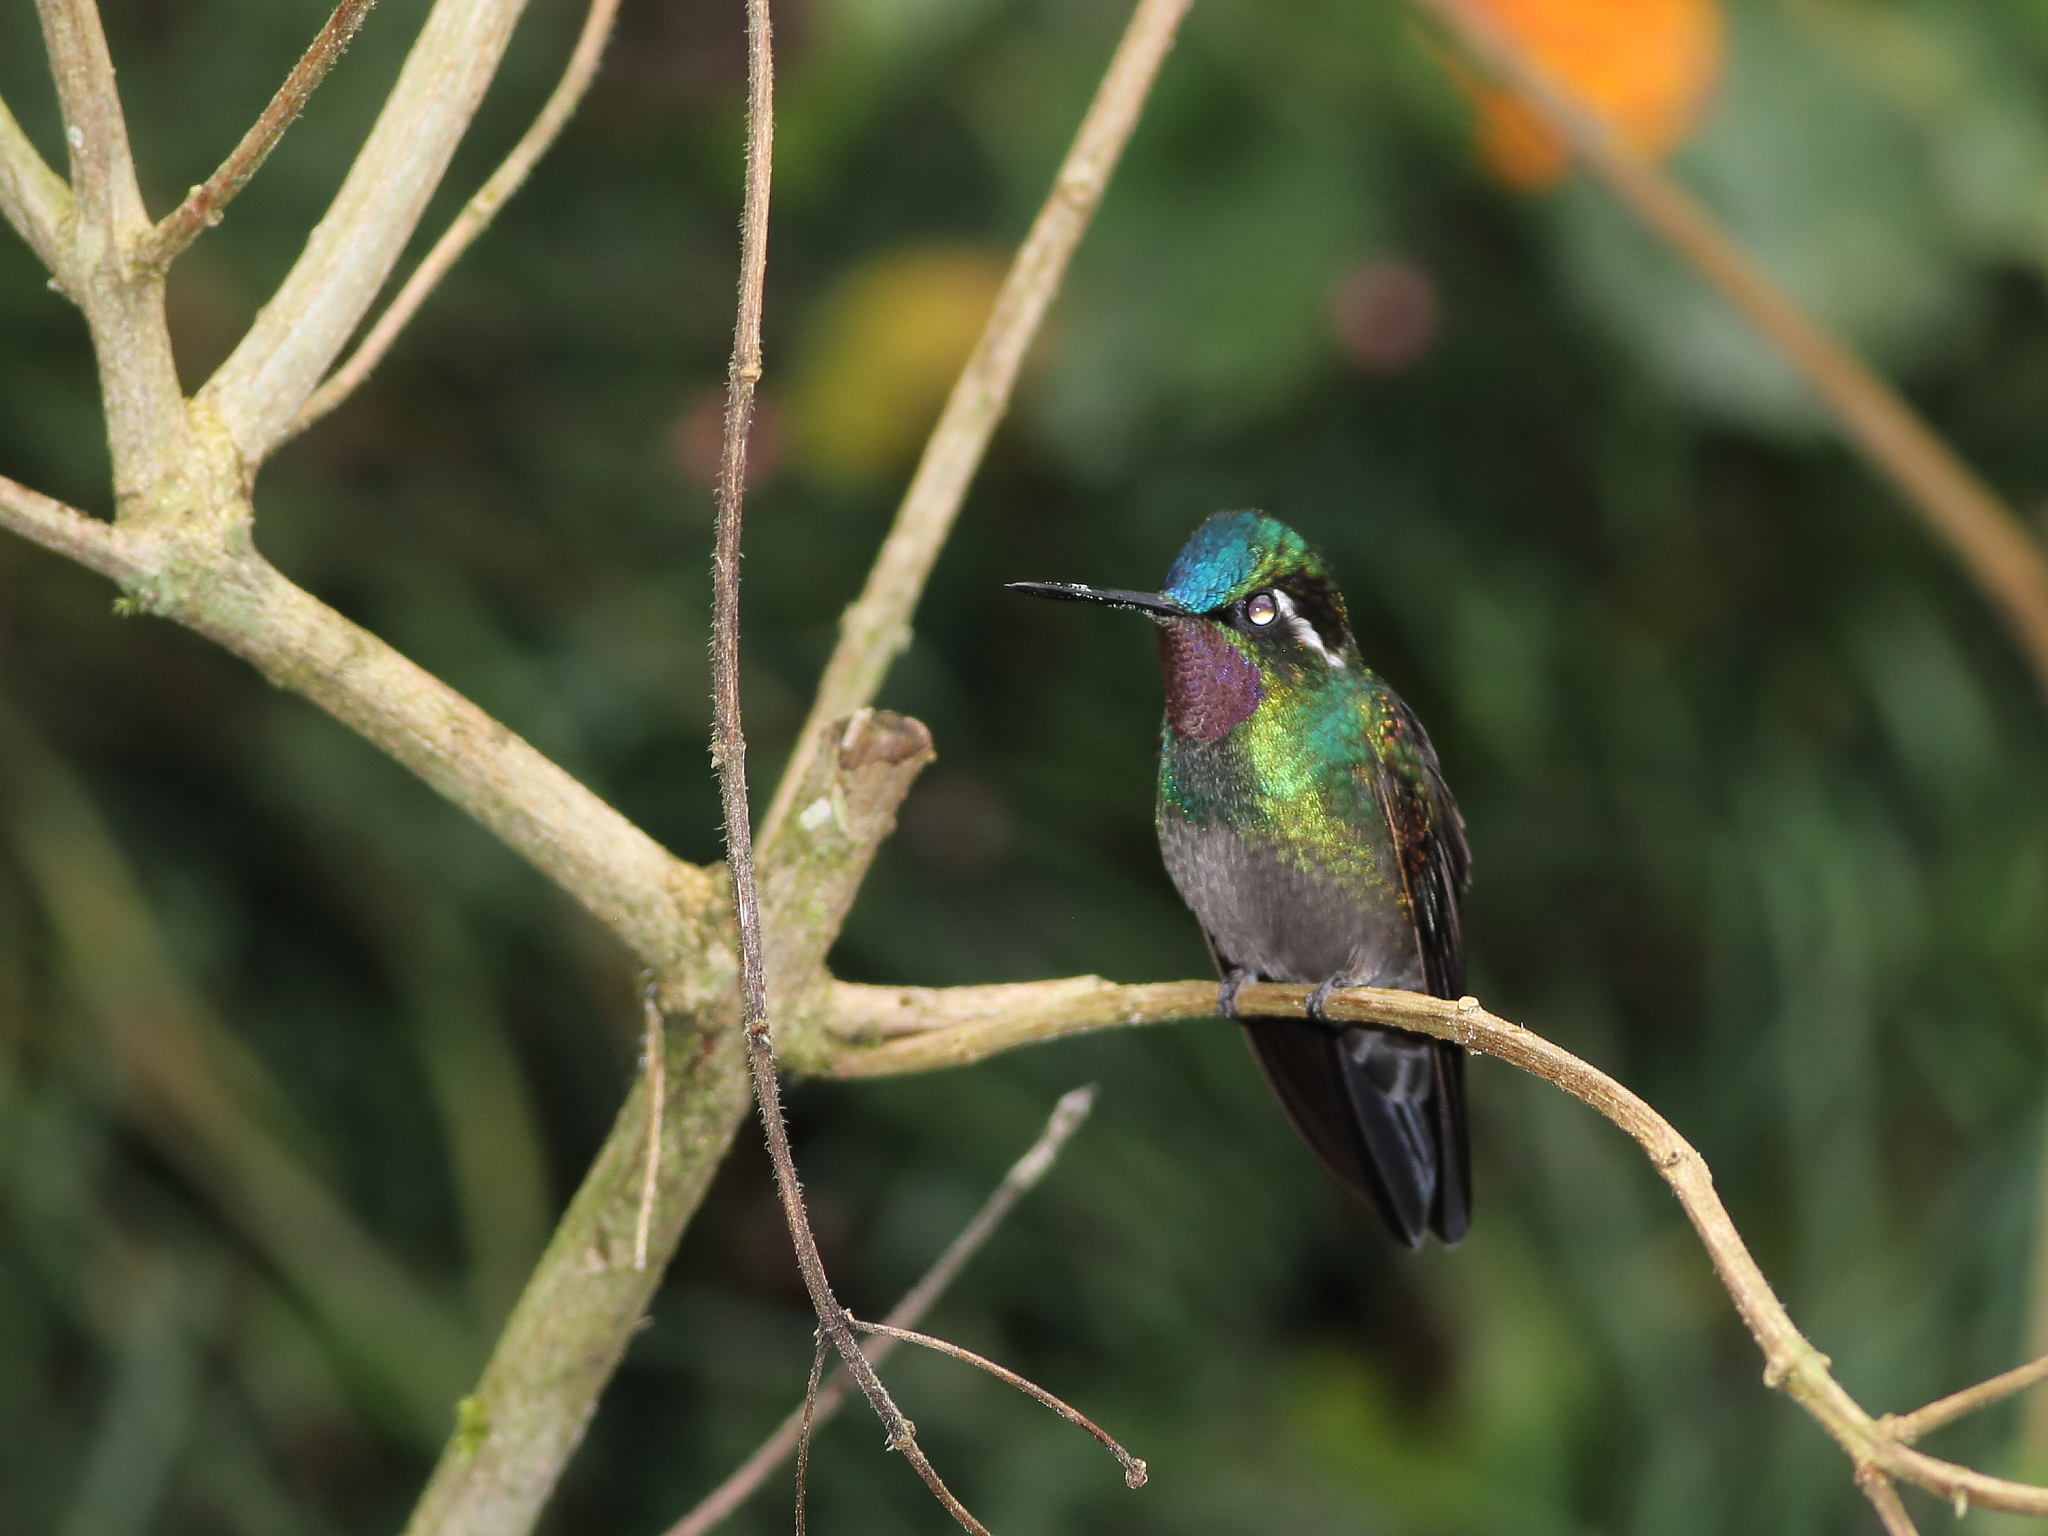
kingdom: Animalia
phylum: Chordata
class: Aves
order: Apodiformes
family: Trochilidae
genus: Lampornis
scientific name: Lampornis calolaemus
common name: Purple-throated mountain-gem
